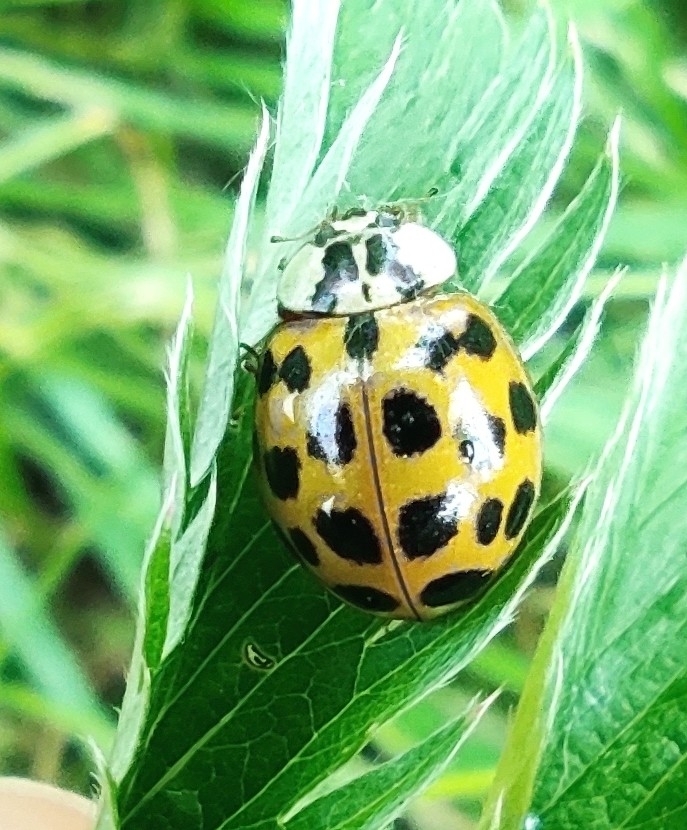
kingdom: Animalia
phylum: Arthropoda
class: Insecta
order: Coleoptera
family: Coccinellidae
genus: Harmonia
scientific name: Harmonia axyridis
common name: Harlequin ladybird
